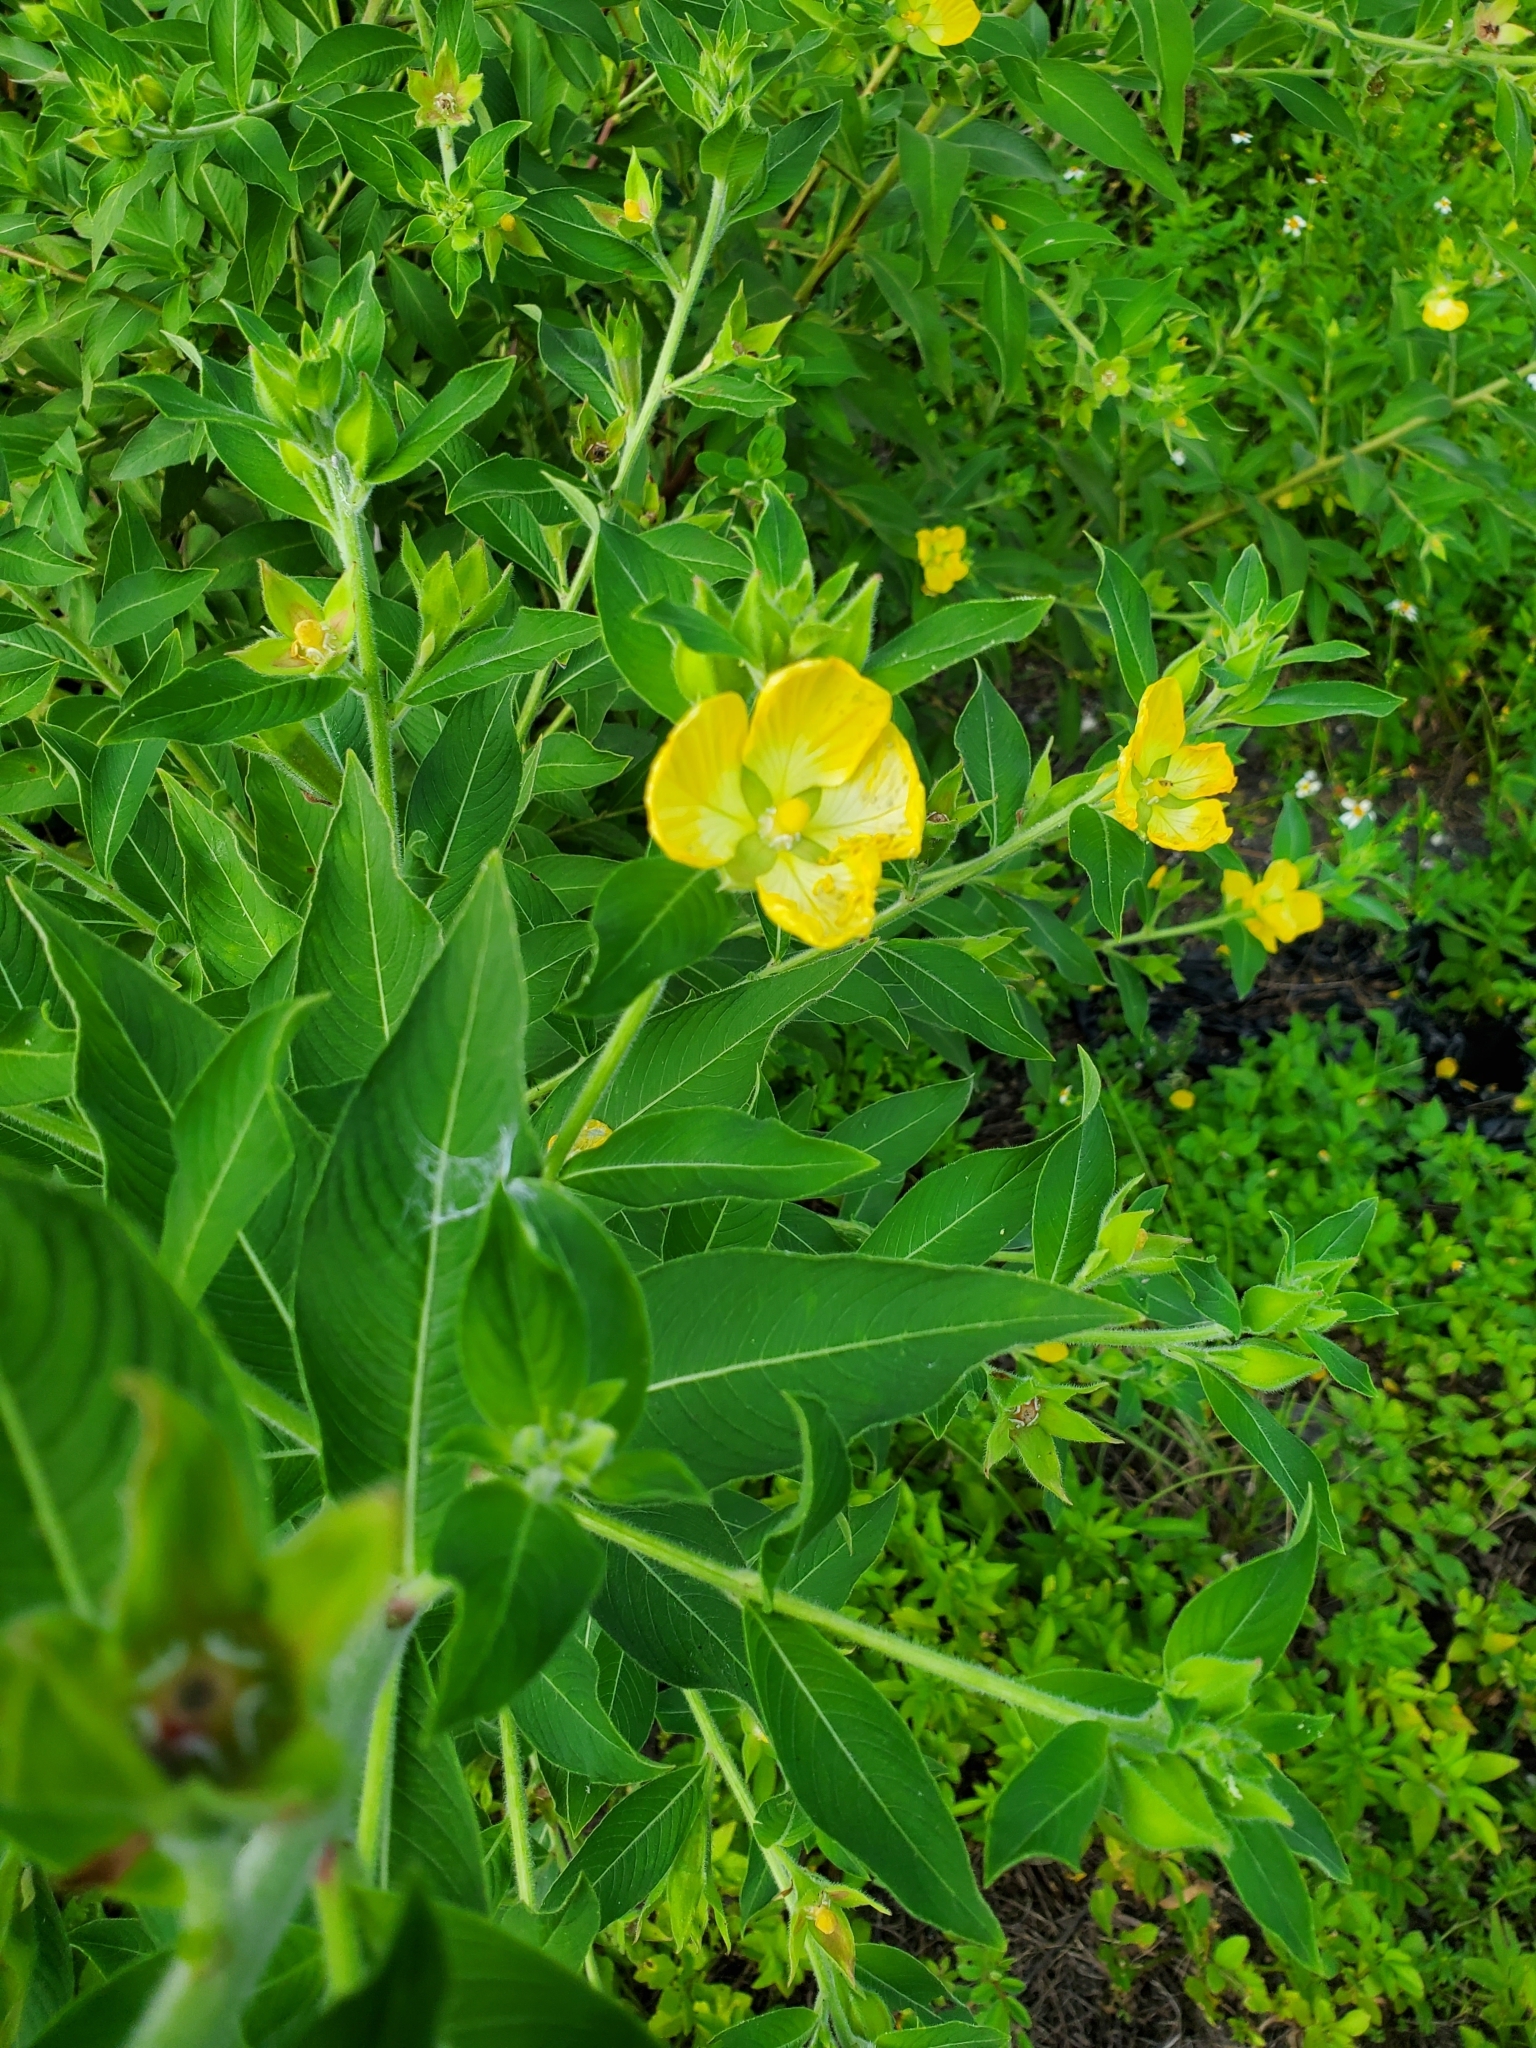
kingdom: Plantae
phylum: Tracheophyta
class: Magnoliopsida
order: Myrtales
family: Onagraceae
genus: Ludwigia
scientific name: Ludwigia peruviana
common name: Peruvian primrose-willow
